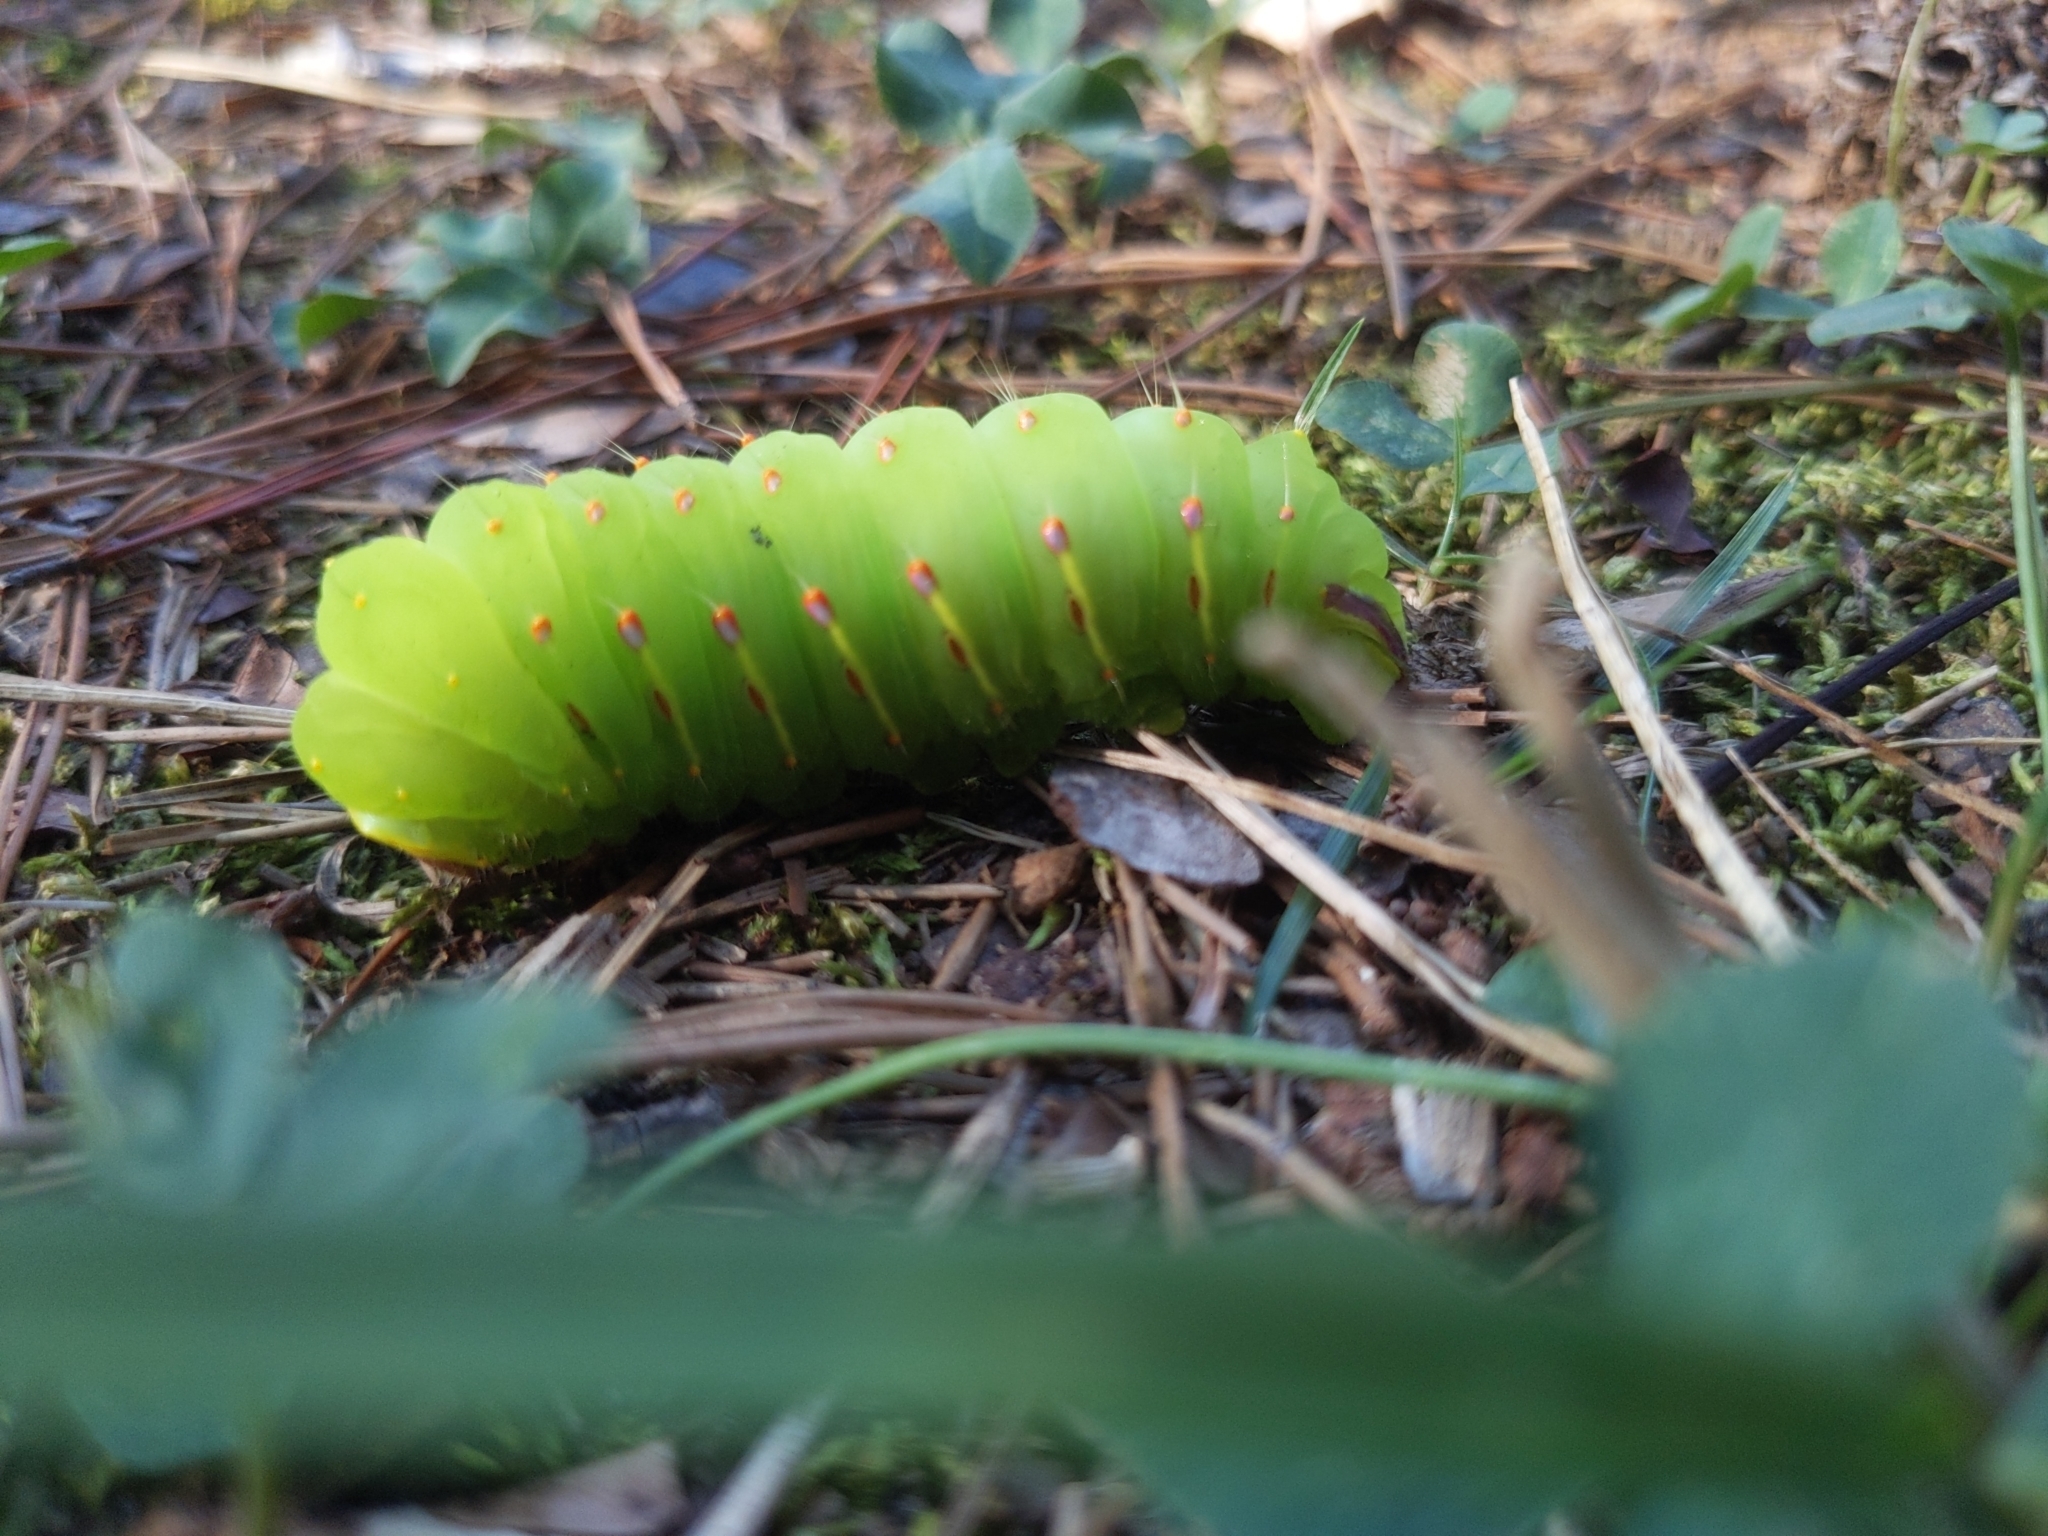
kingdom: Animalia
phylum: Arthropoda
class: Insecta
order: Lepidoptera
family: Saturniidae
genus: Antheraea
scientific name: Antheraea polyphemus
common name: Polyphemus moth
